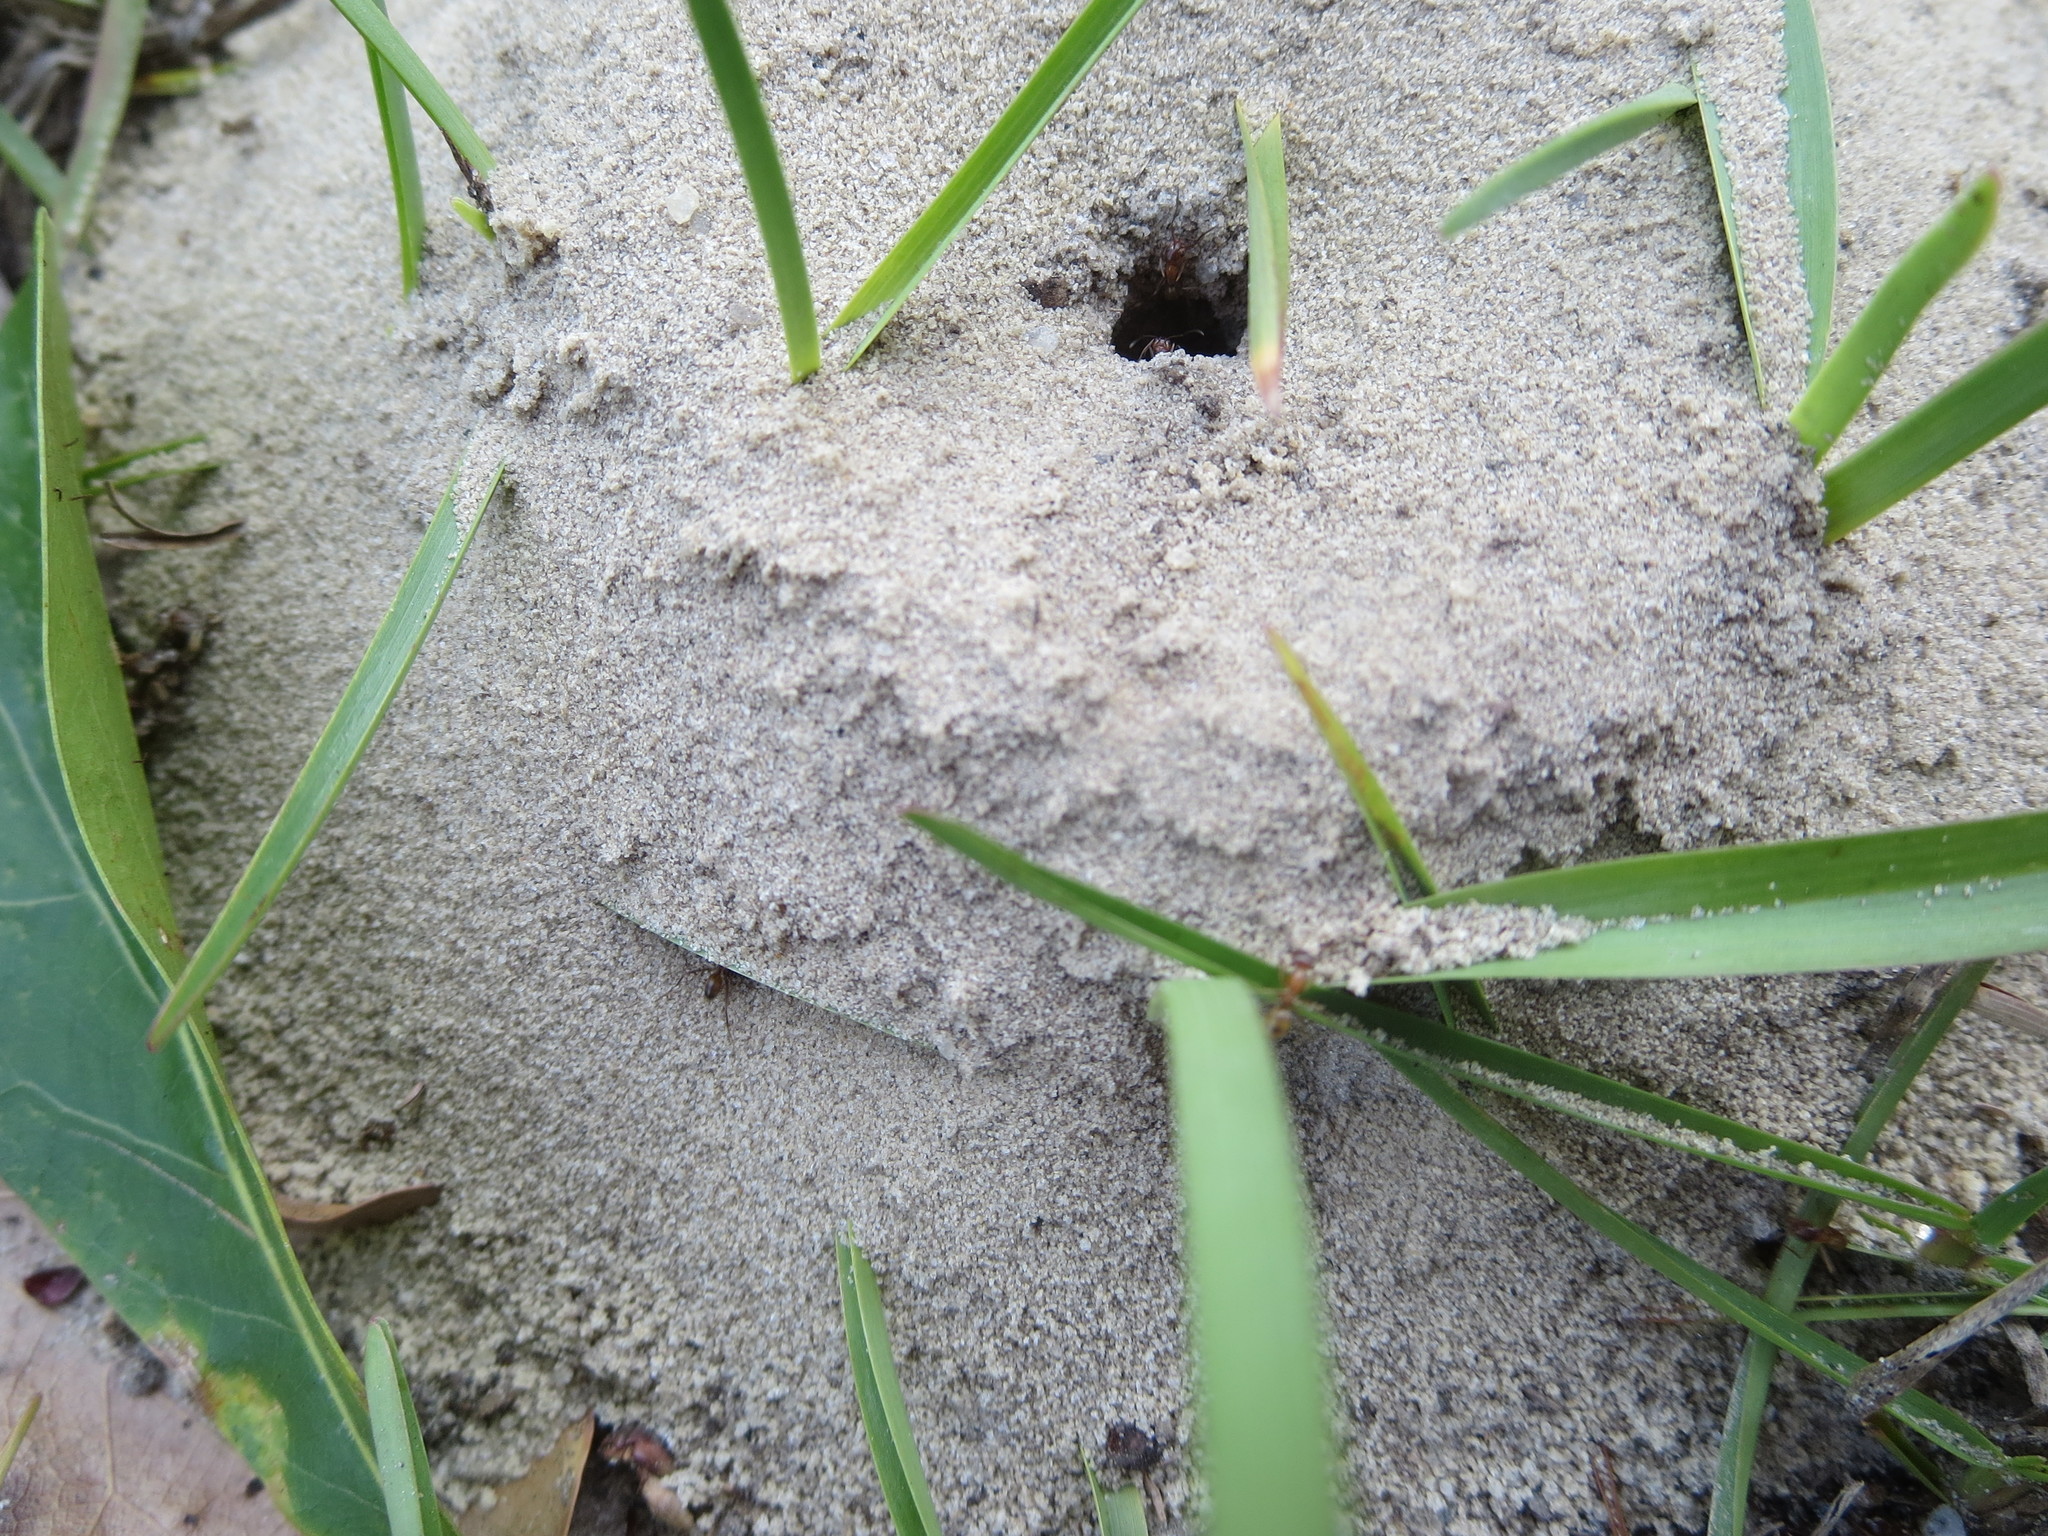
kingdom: Animalia
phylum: Arthropoda
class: Insecta
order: Hymenoptera
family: Formicidae
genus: Dorymyrmex
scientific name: Dorymyrmex bureni
